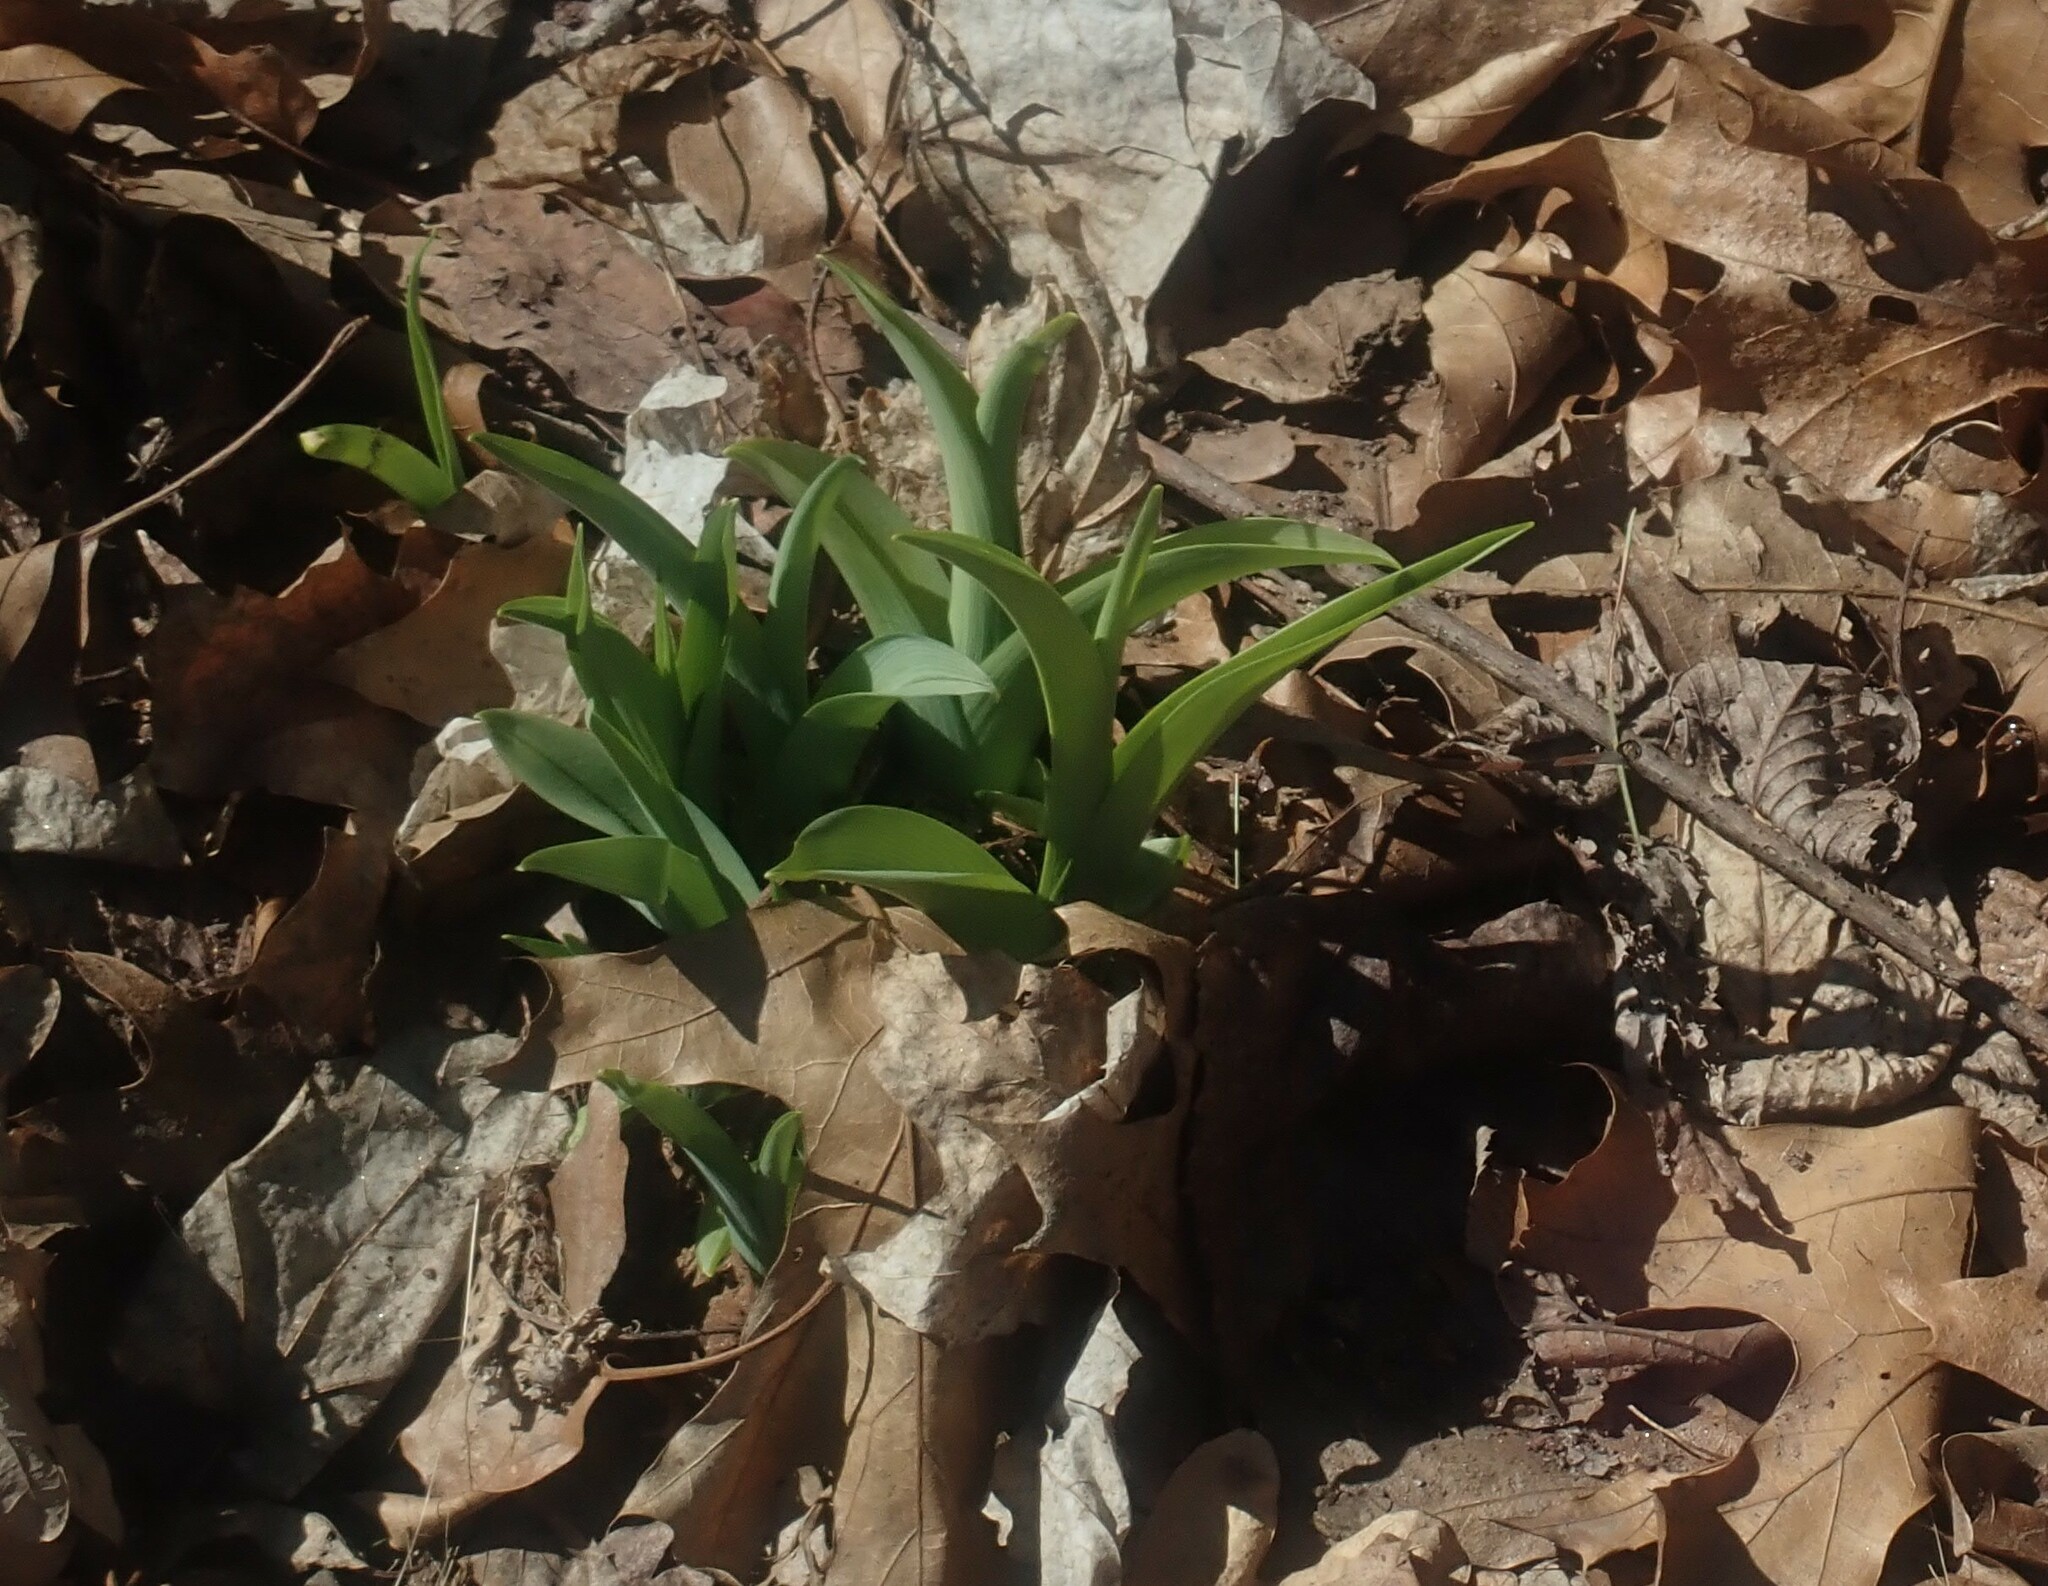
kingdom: Plantae
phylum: Tracheophyta
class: Liliopsida
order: Asparagales
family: Asphodelaceae
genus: Hemerocallis
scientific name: Hemerocallis
